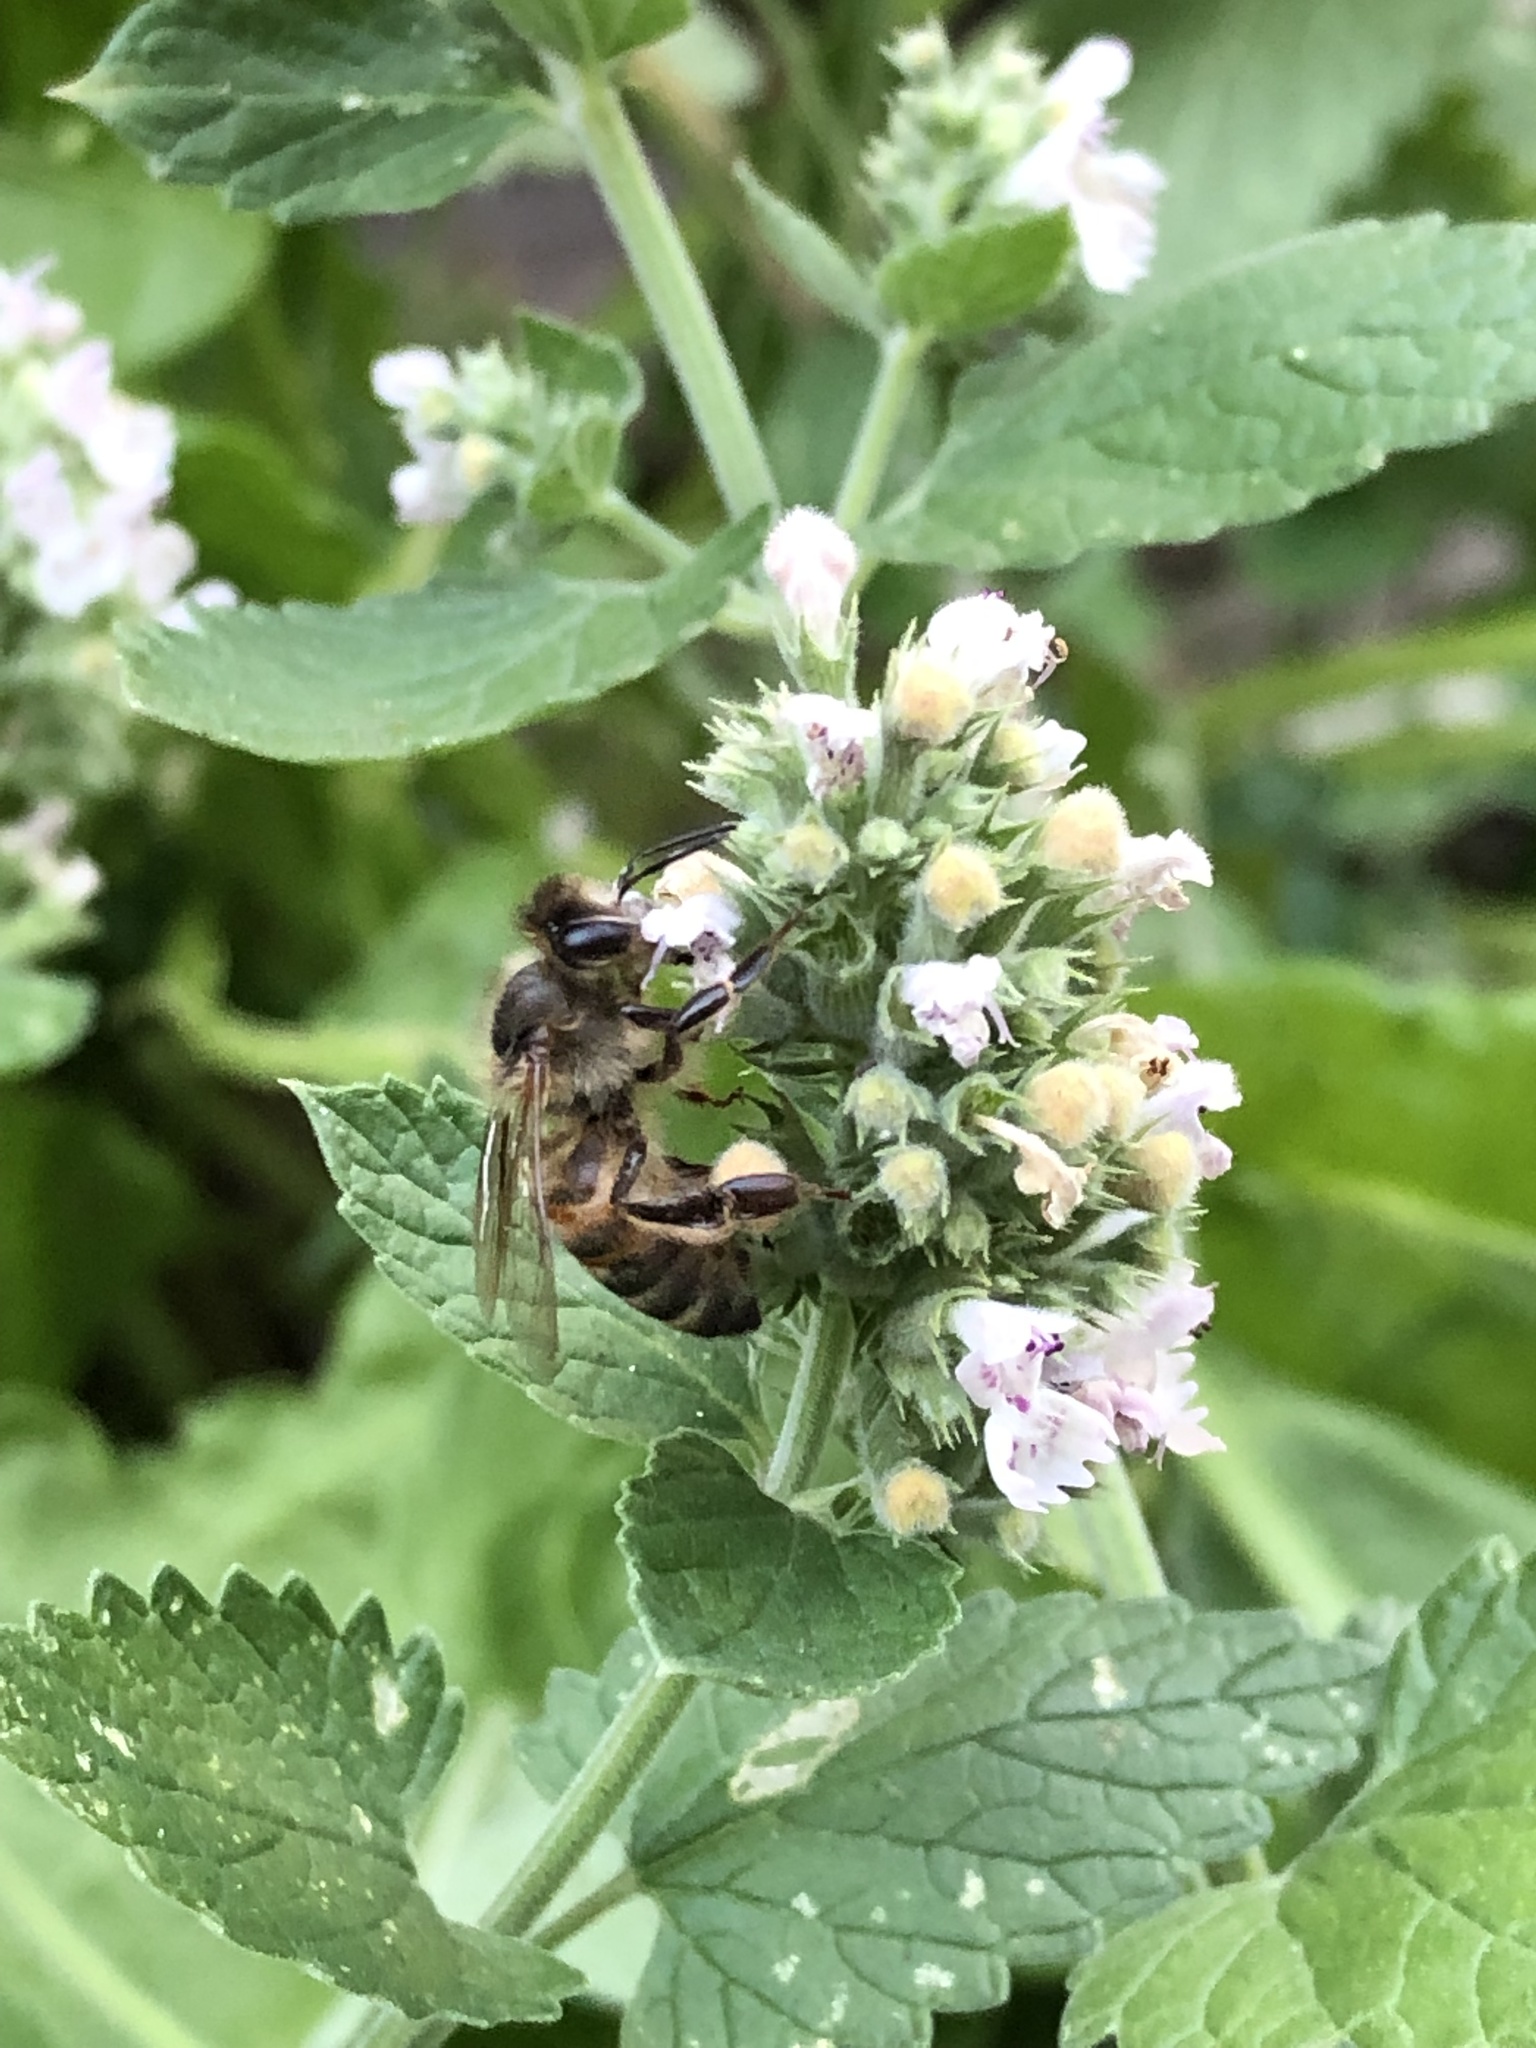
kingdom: Animalia
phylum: Arthropoda
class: Insecta
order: Hymenoptera
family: Apidae
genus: Apis
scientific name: Apis mellifera
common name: Honey bee
